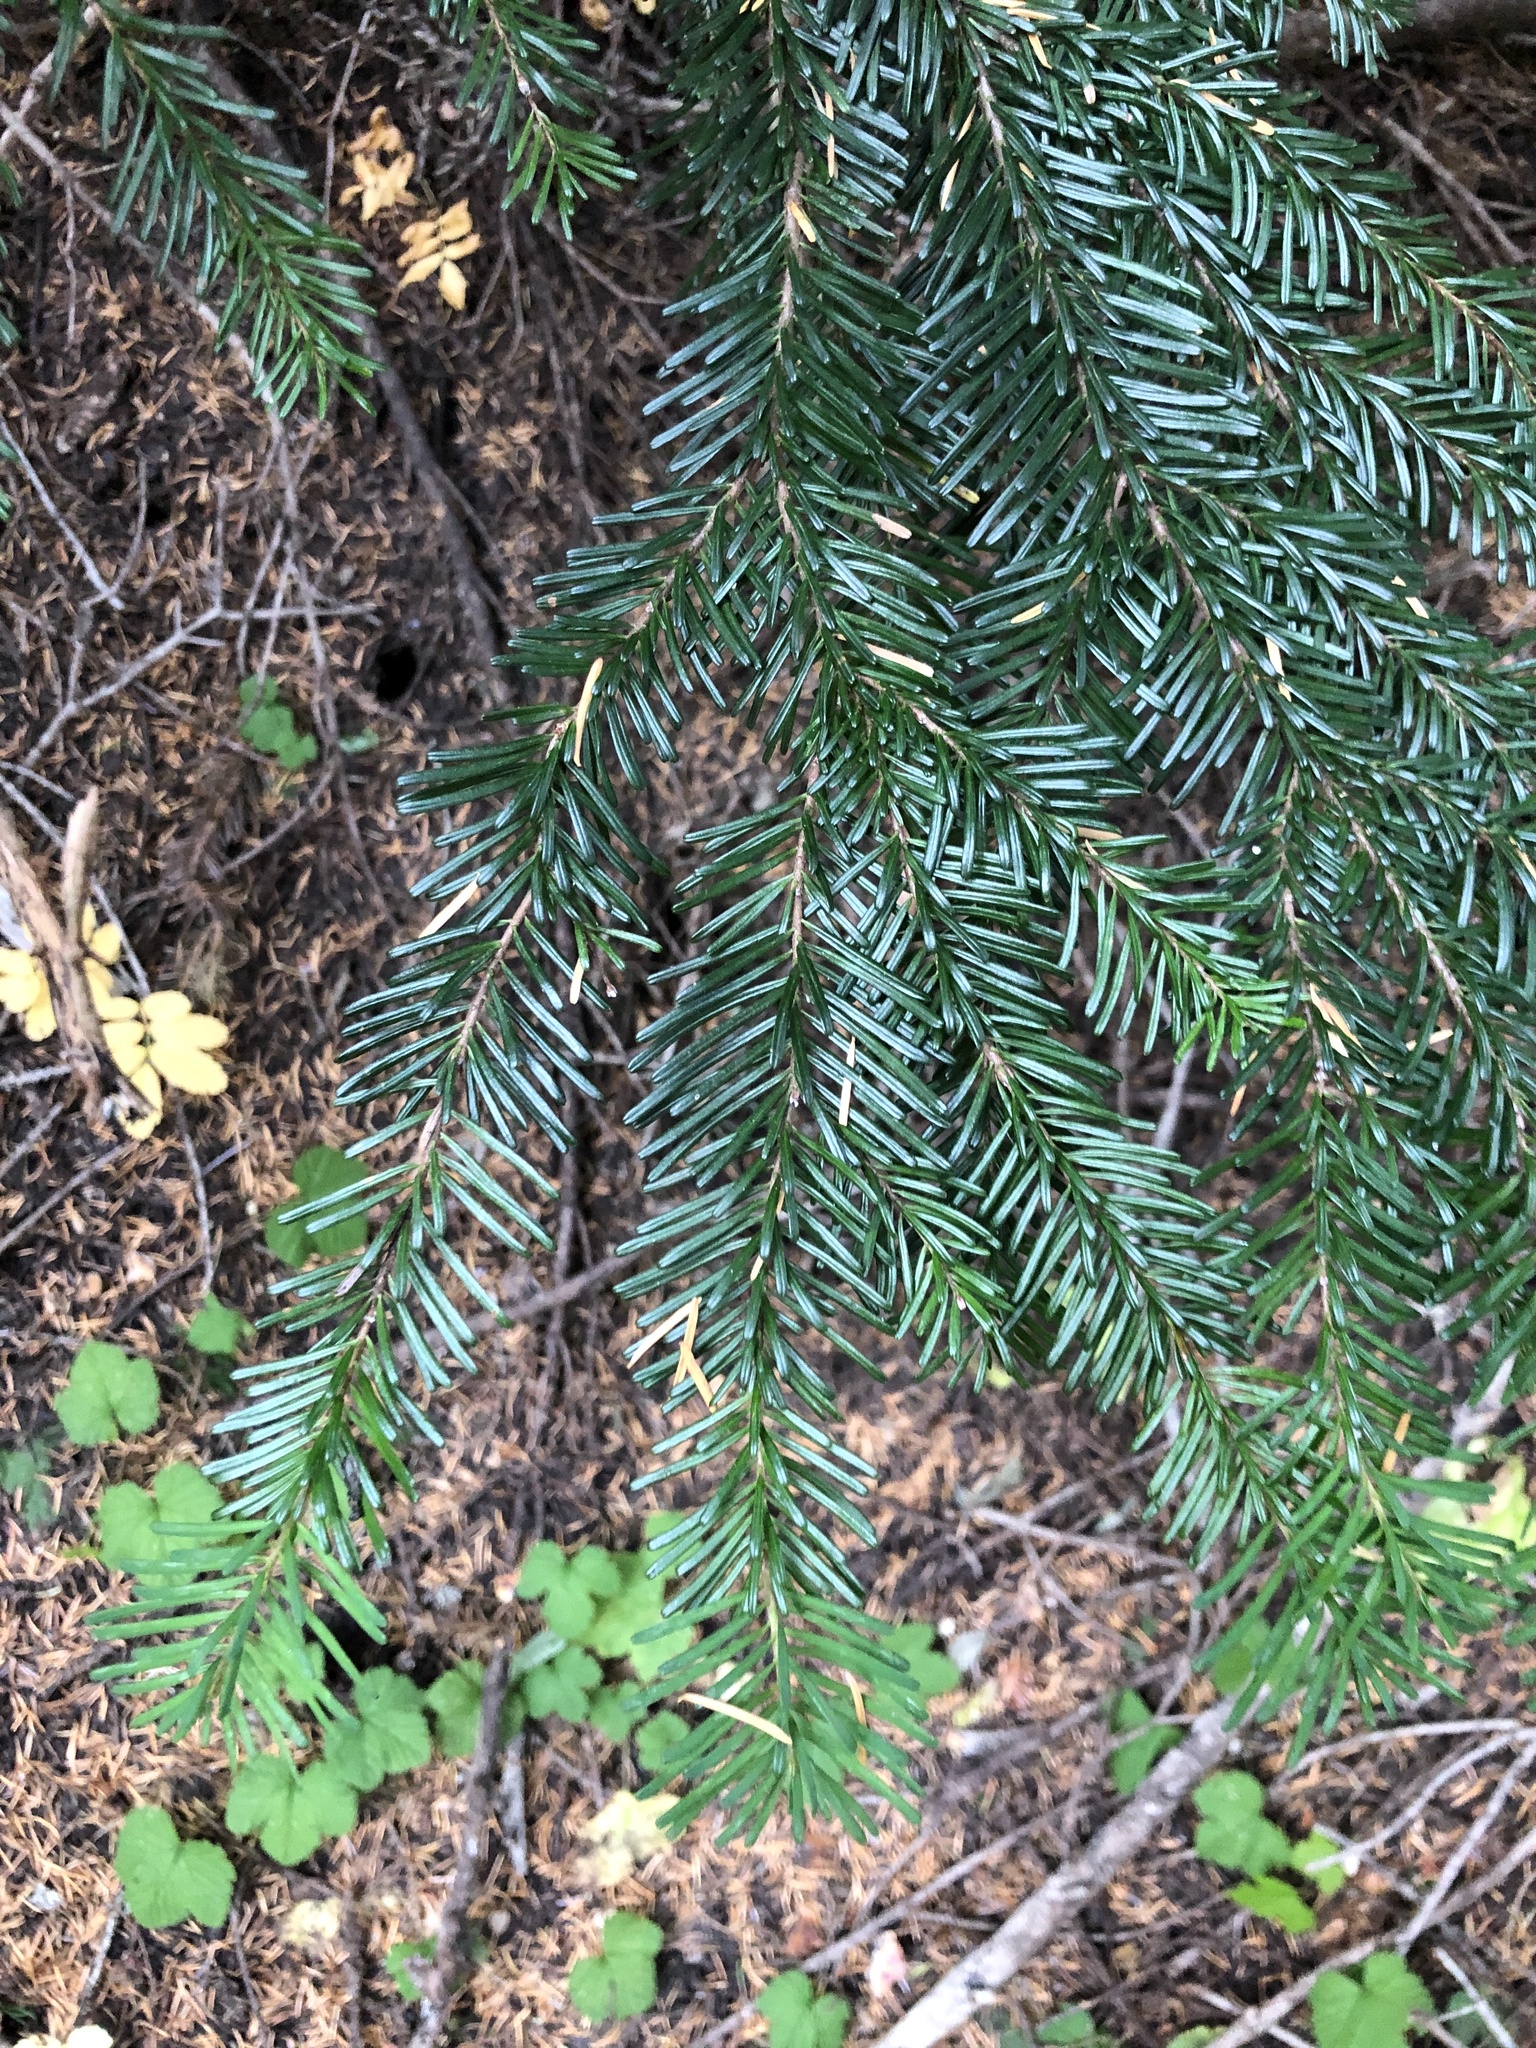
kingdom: Plantae
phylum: Tracheophyta
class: Pinopsida
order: Pinales
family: Pinaceae
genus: Abies
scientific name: Abies amabilis
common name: Pacific silver fir
